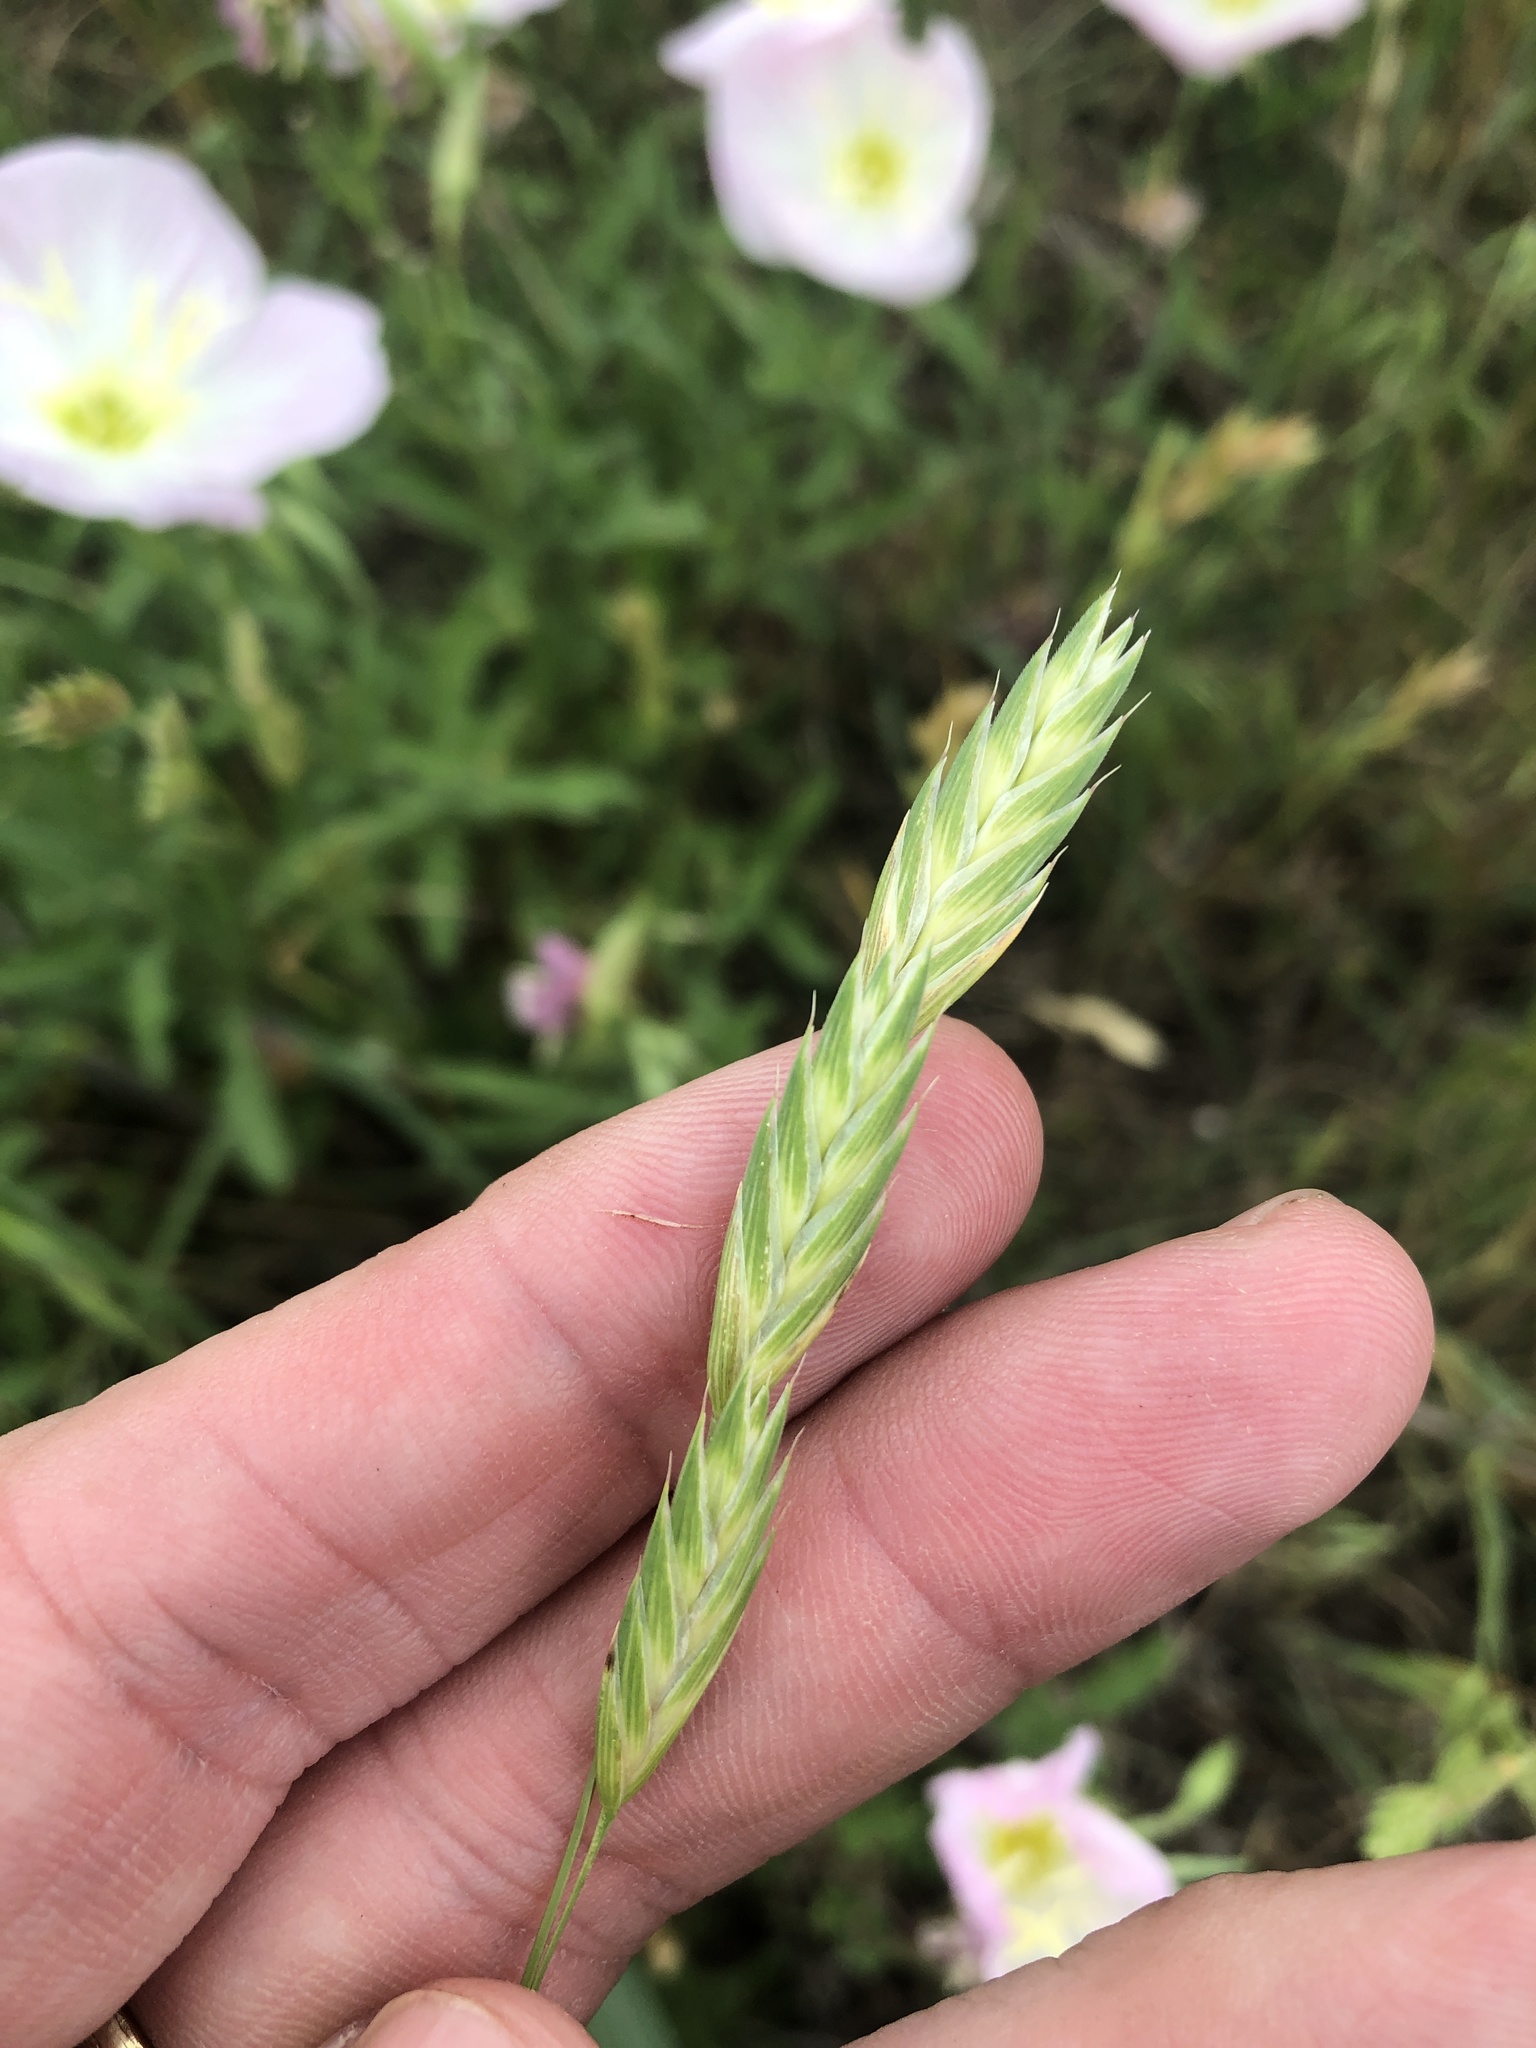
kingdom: Plantae
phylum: Tracheophyta
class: Liliopsida
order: Poales
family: Poaceae
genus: Bromus
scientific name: Bromus catharticus
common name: Rescuegrass
